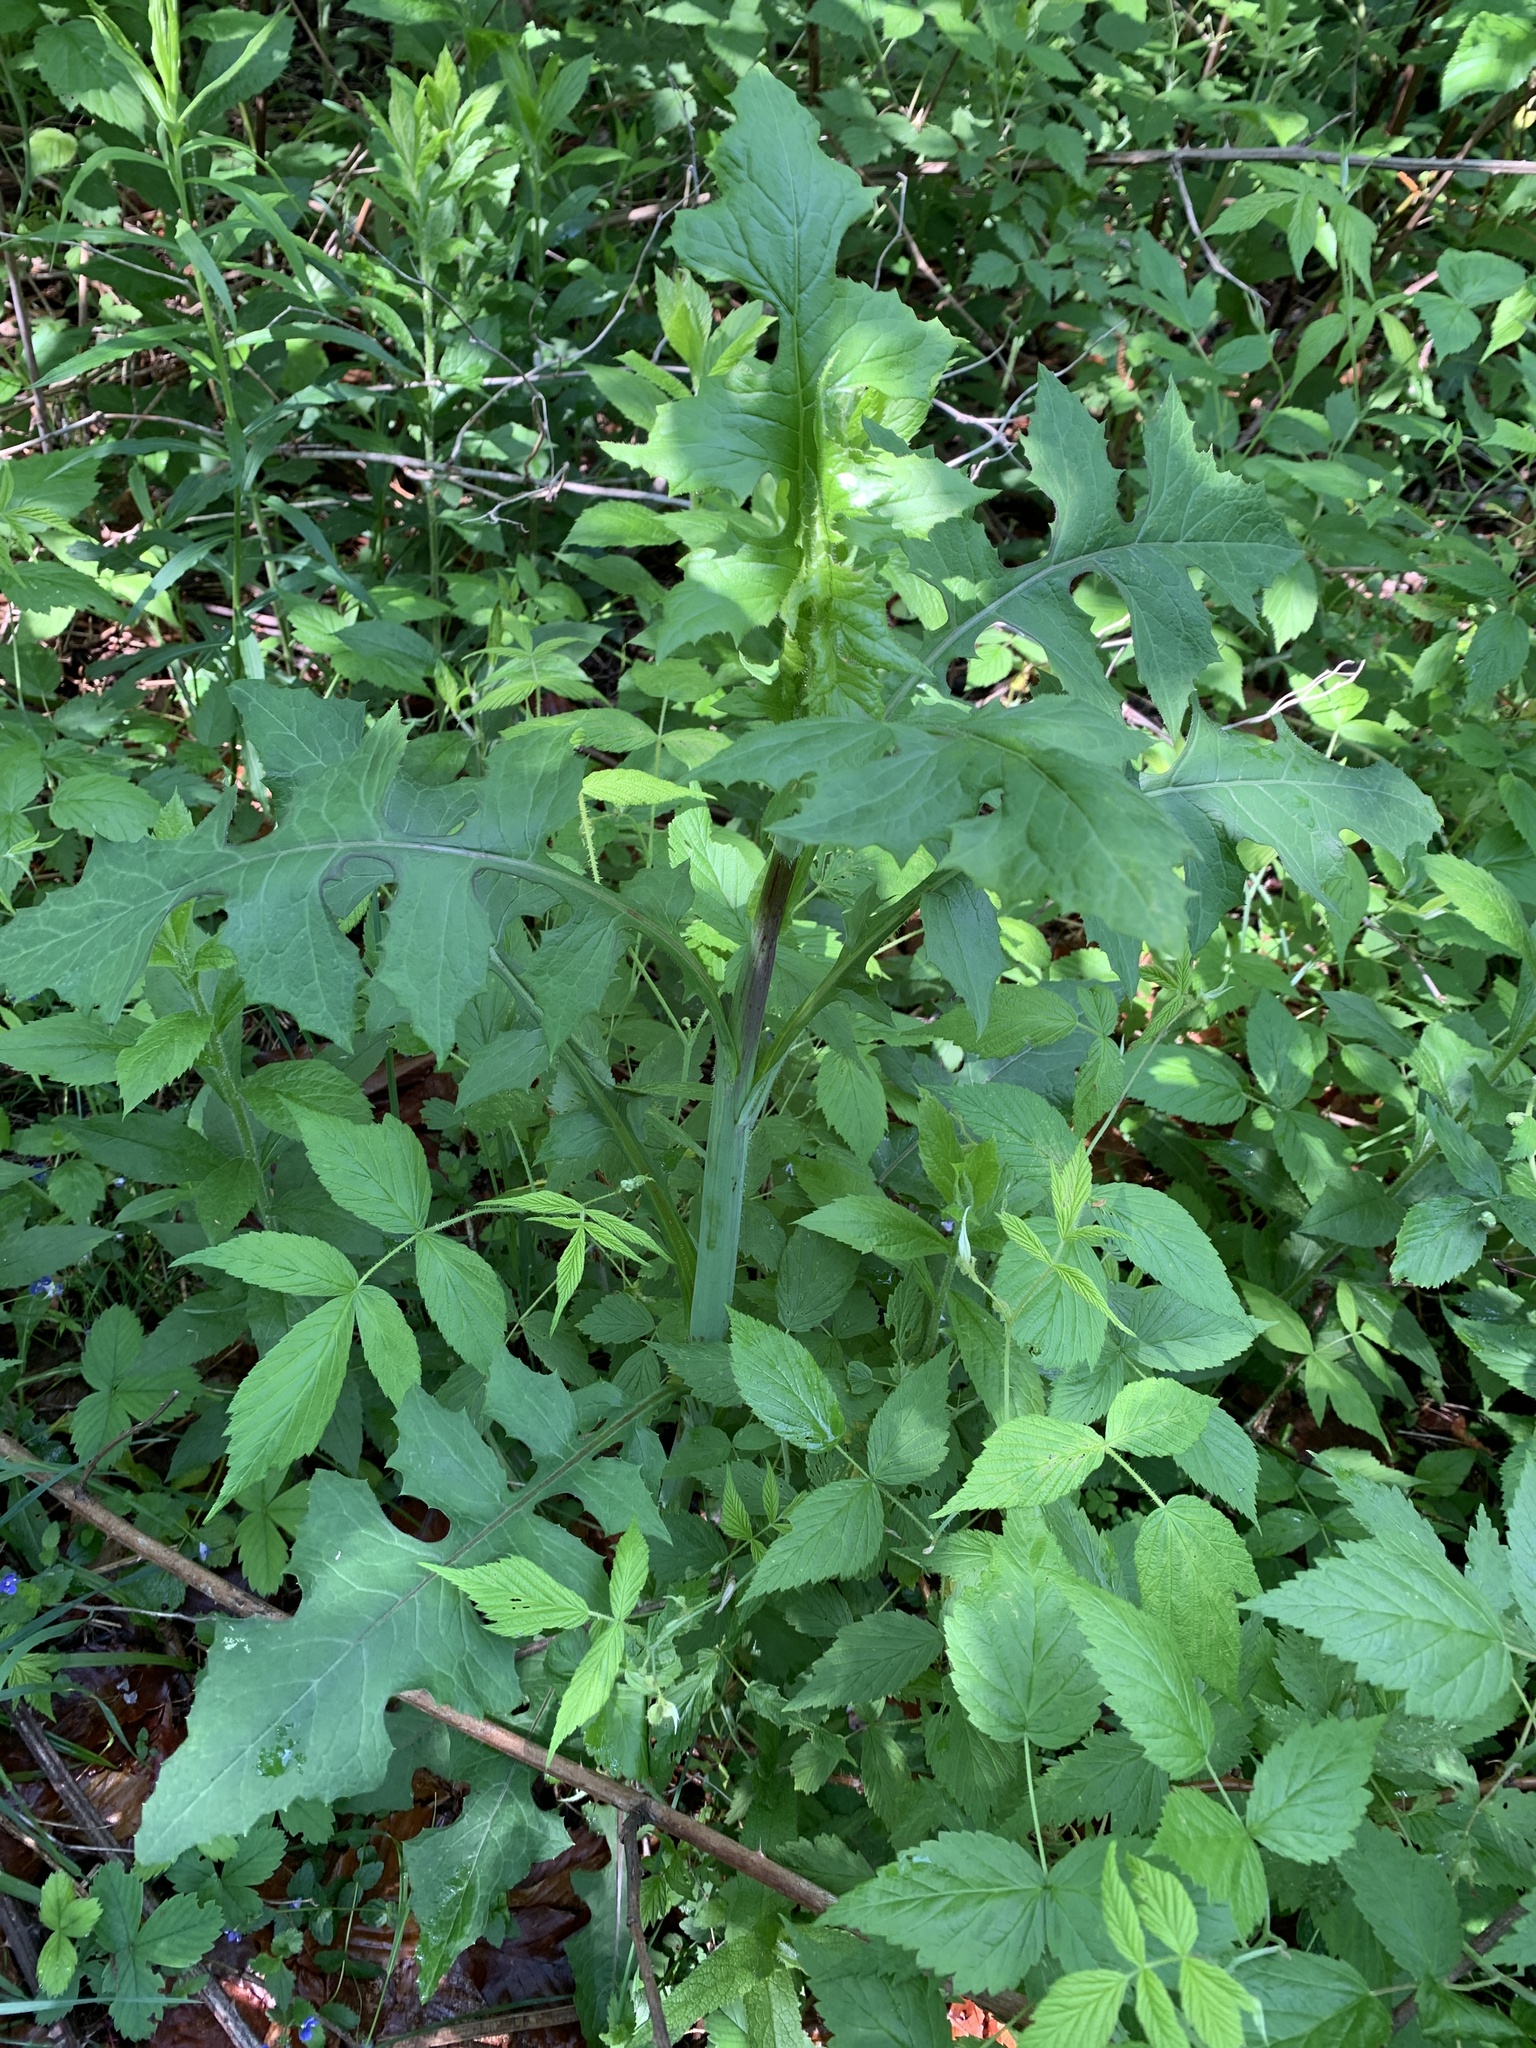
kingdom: Plantae
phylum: Tracheophyta
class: Magnoliopsida
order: Asterales
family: Asteraceae
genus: Lactuca
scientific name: Lactuca biennis
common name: Blue wood lettuce
